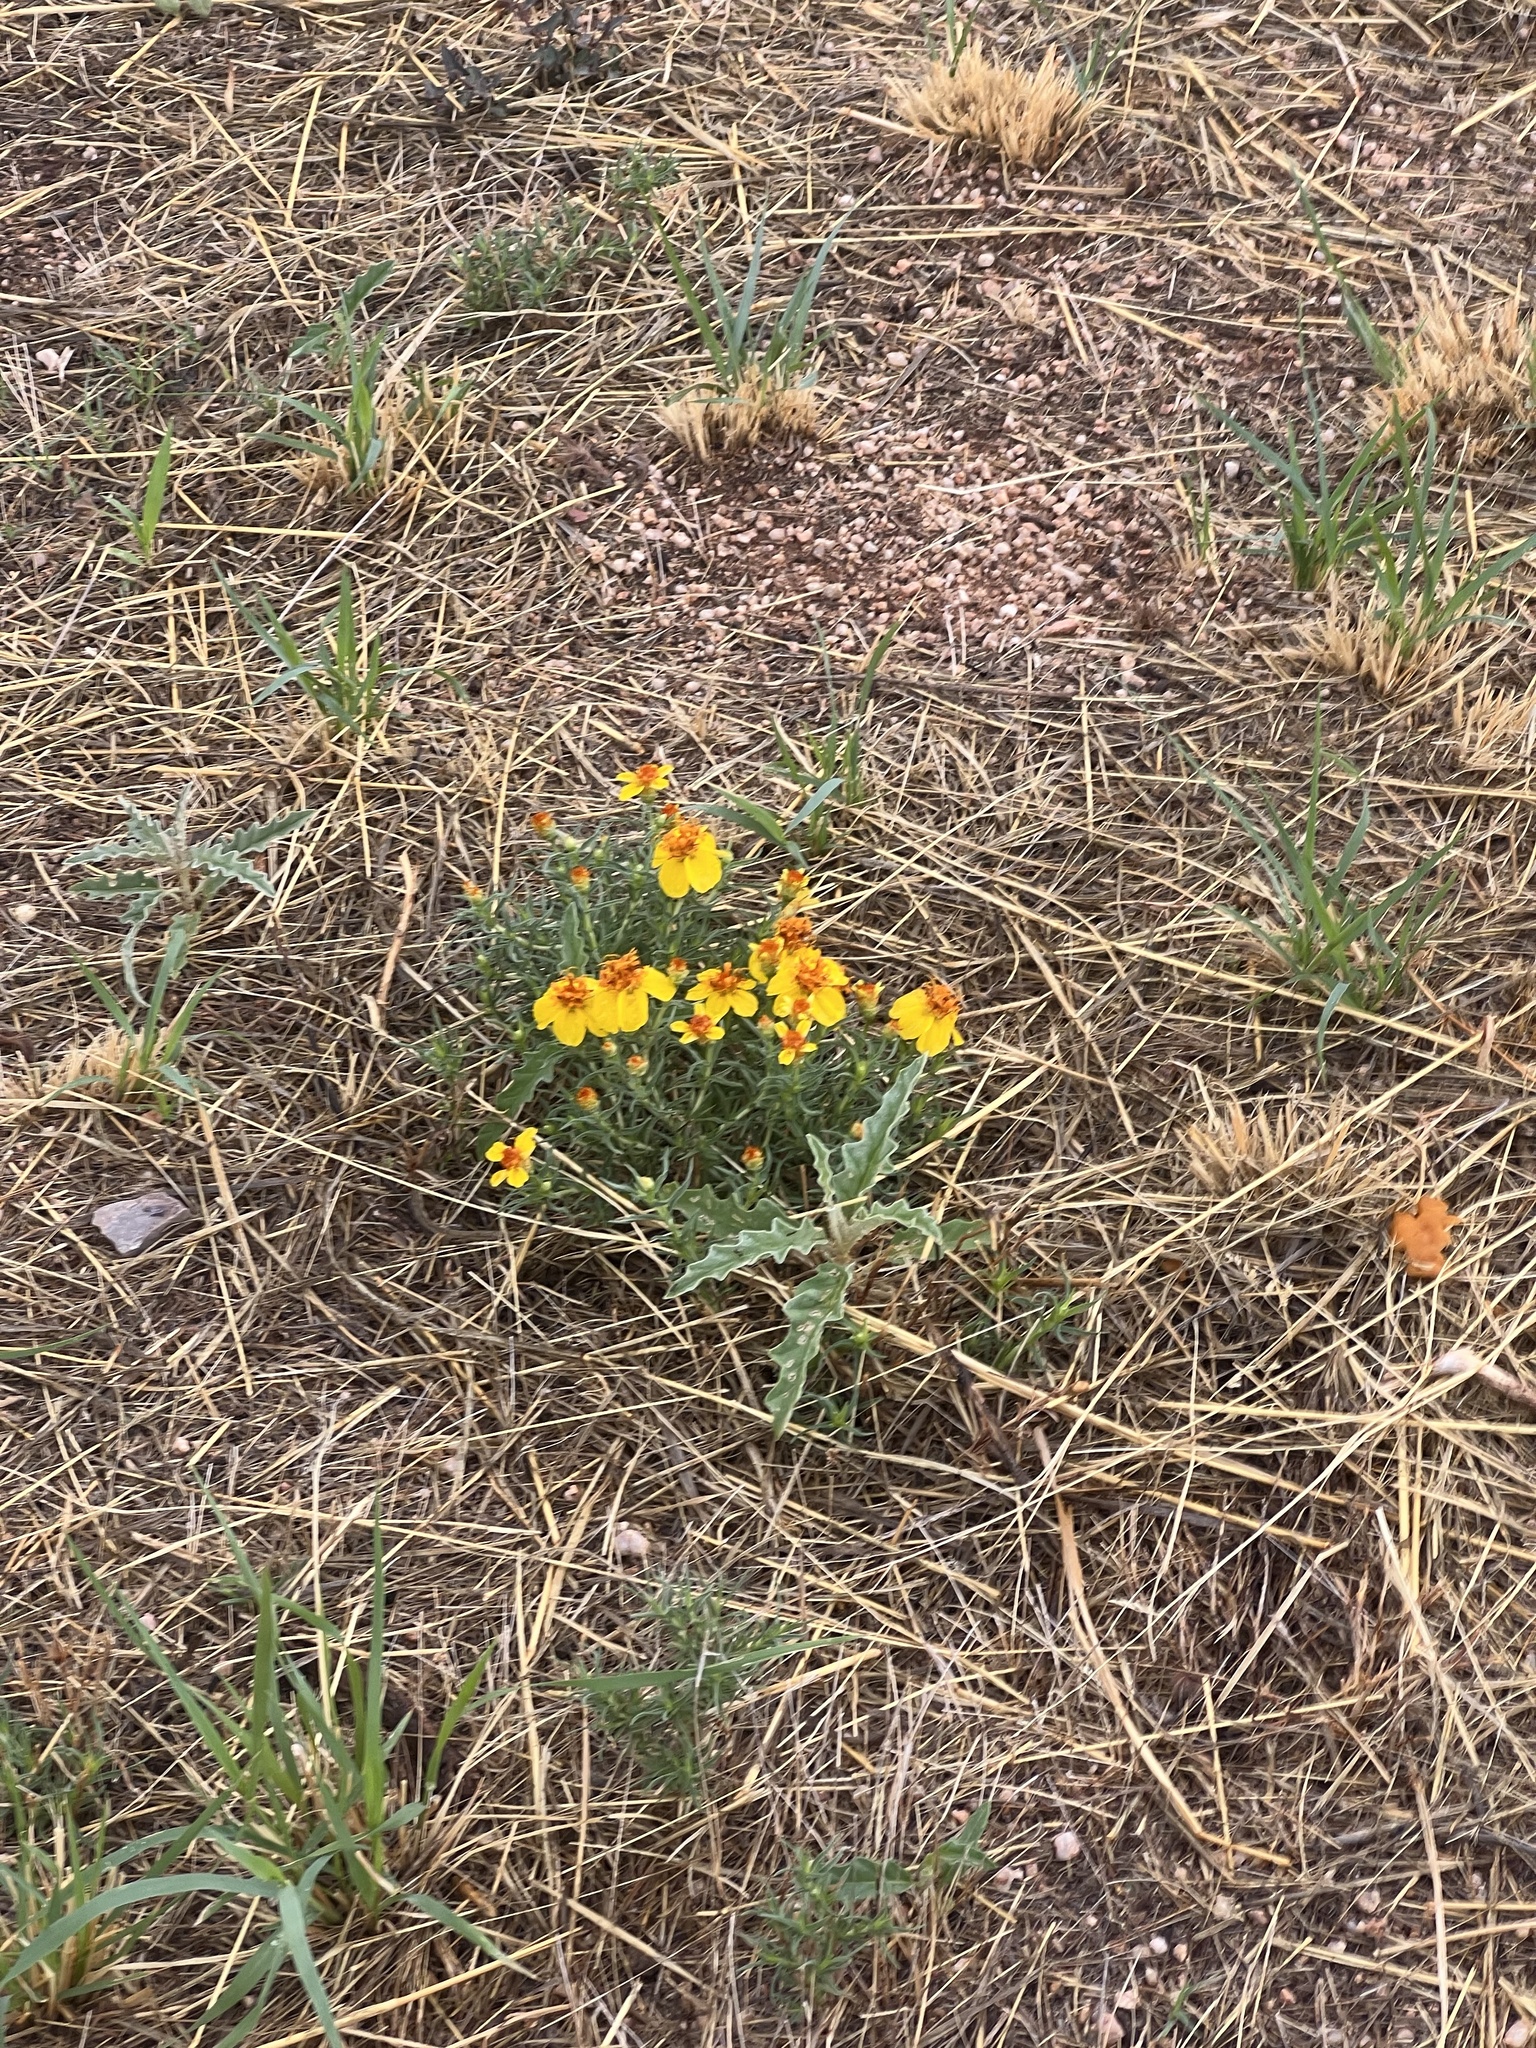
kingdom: Plantae
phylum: Tracheophyta
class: Magnoliopsida
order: Asterales
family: Asteraceae
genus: Zinnia
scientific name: Zinnia grandiflora
